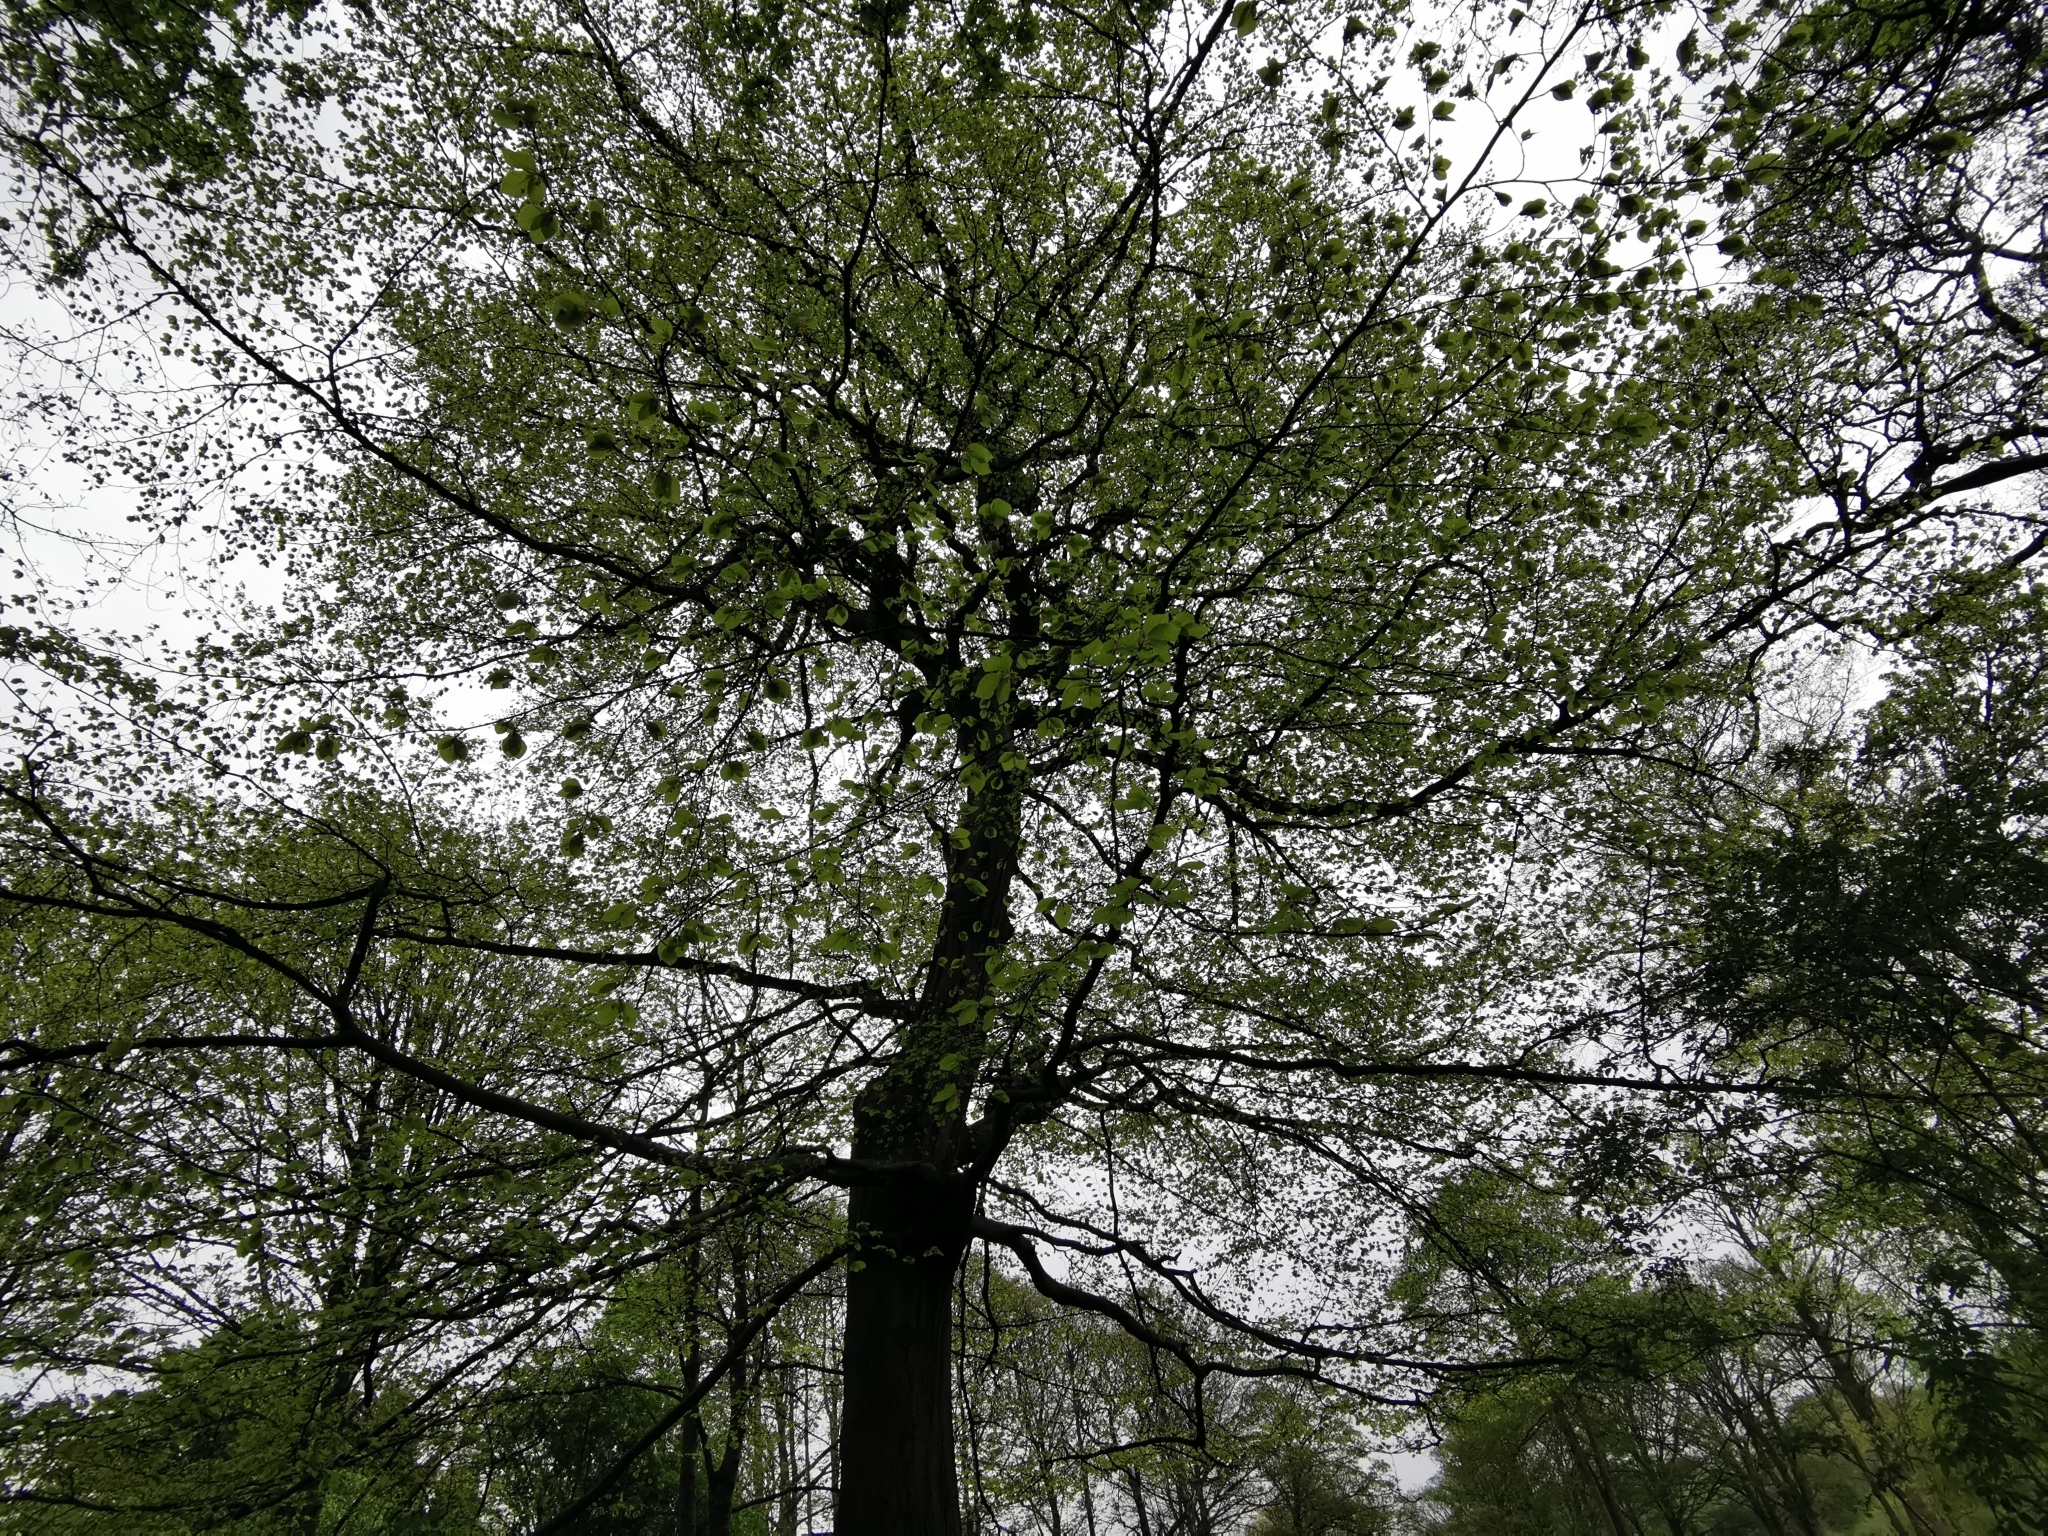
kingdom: Plantae
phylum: Tracheophyta
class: Magnoliopsida
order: Fagales
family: Fagaceae
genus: Fagus
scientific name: Fagus sylvatica
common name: Beech
